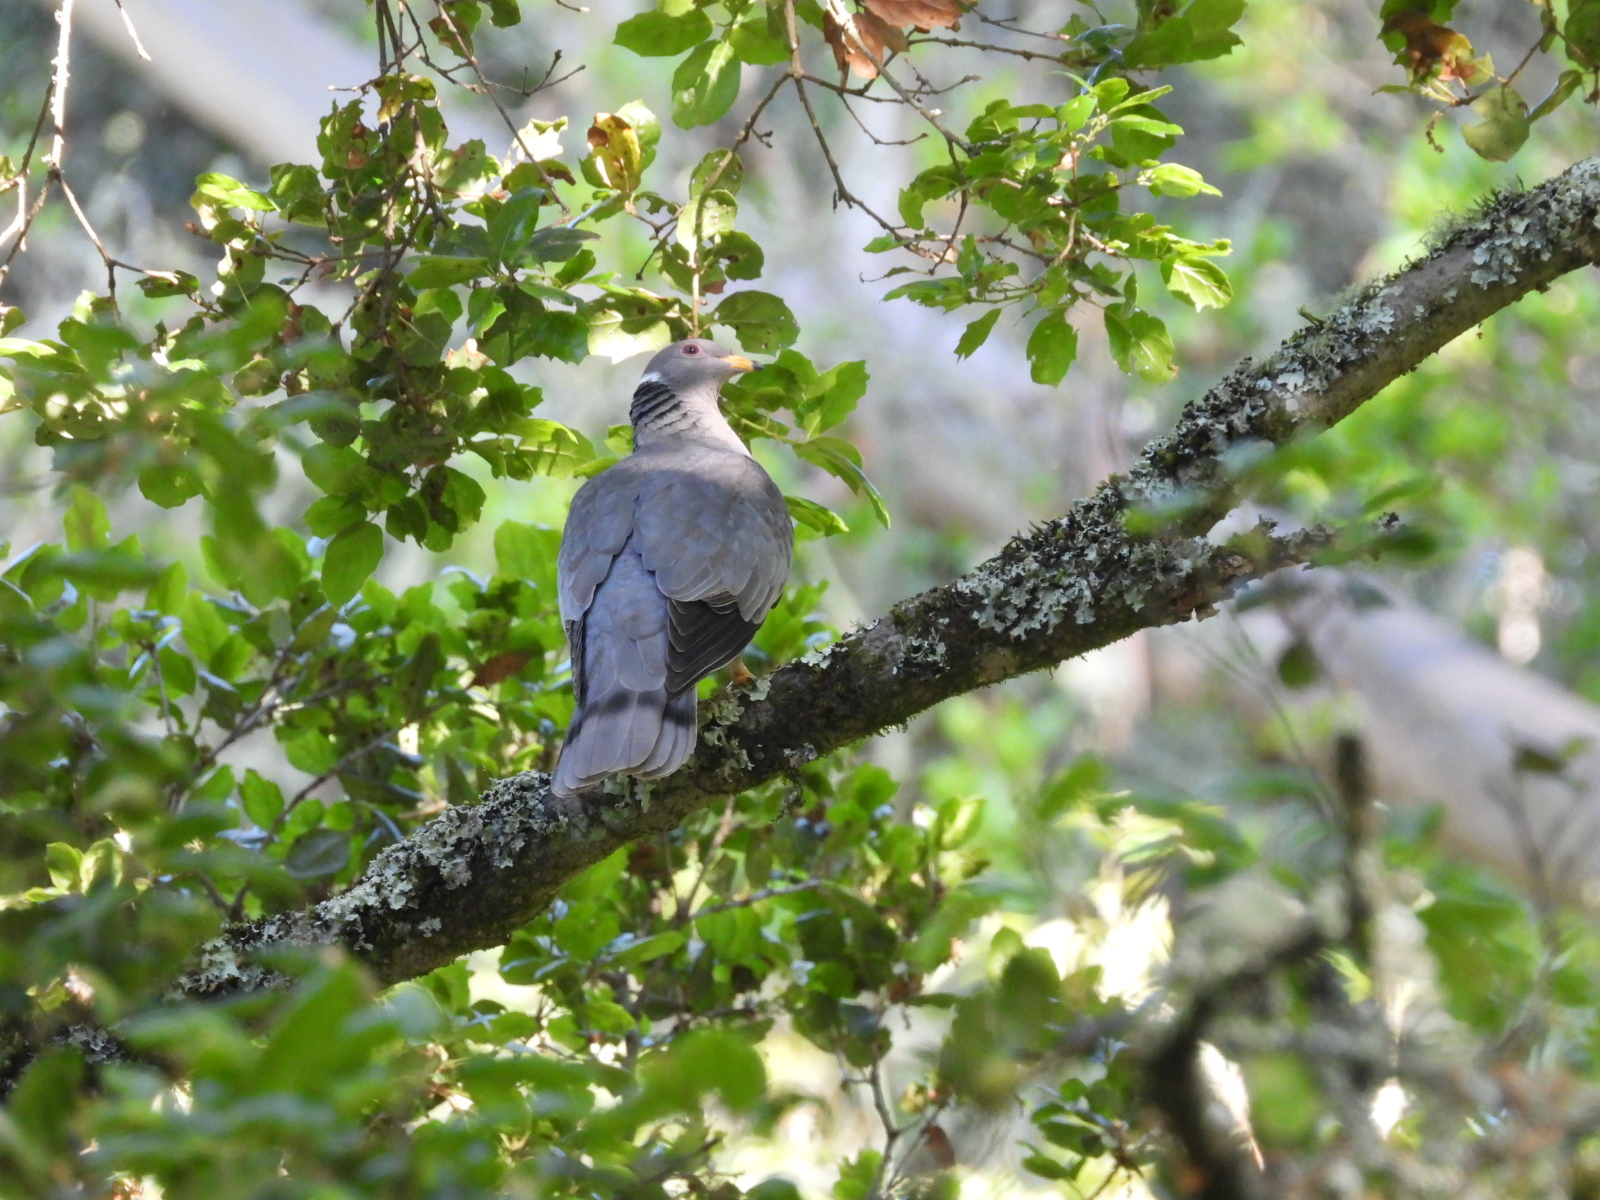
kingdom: Animalia
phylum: Chordata
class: Aves
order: Columbiformes
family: Columbidae
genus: Patagioenas
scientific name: Patagioenas fasciata
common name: Band-tailed pigeon
